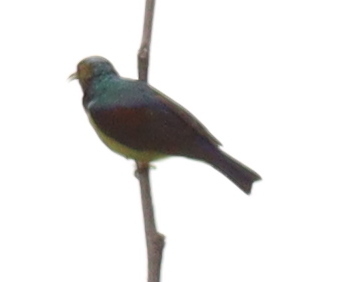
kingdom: Animalia
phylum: Chordata
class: Aves
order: Passeriformes
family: Nectariniidae
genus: Anthreptes
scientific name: Anthreptes malacensis
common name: Brown-throated sunbird
